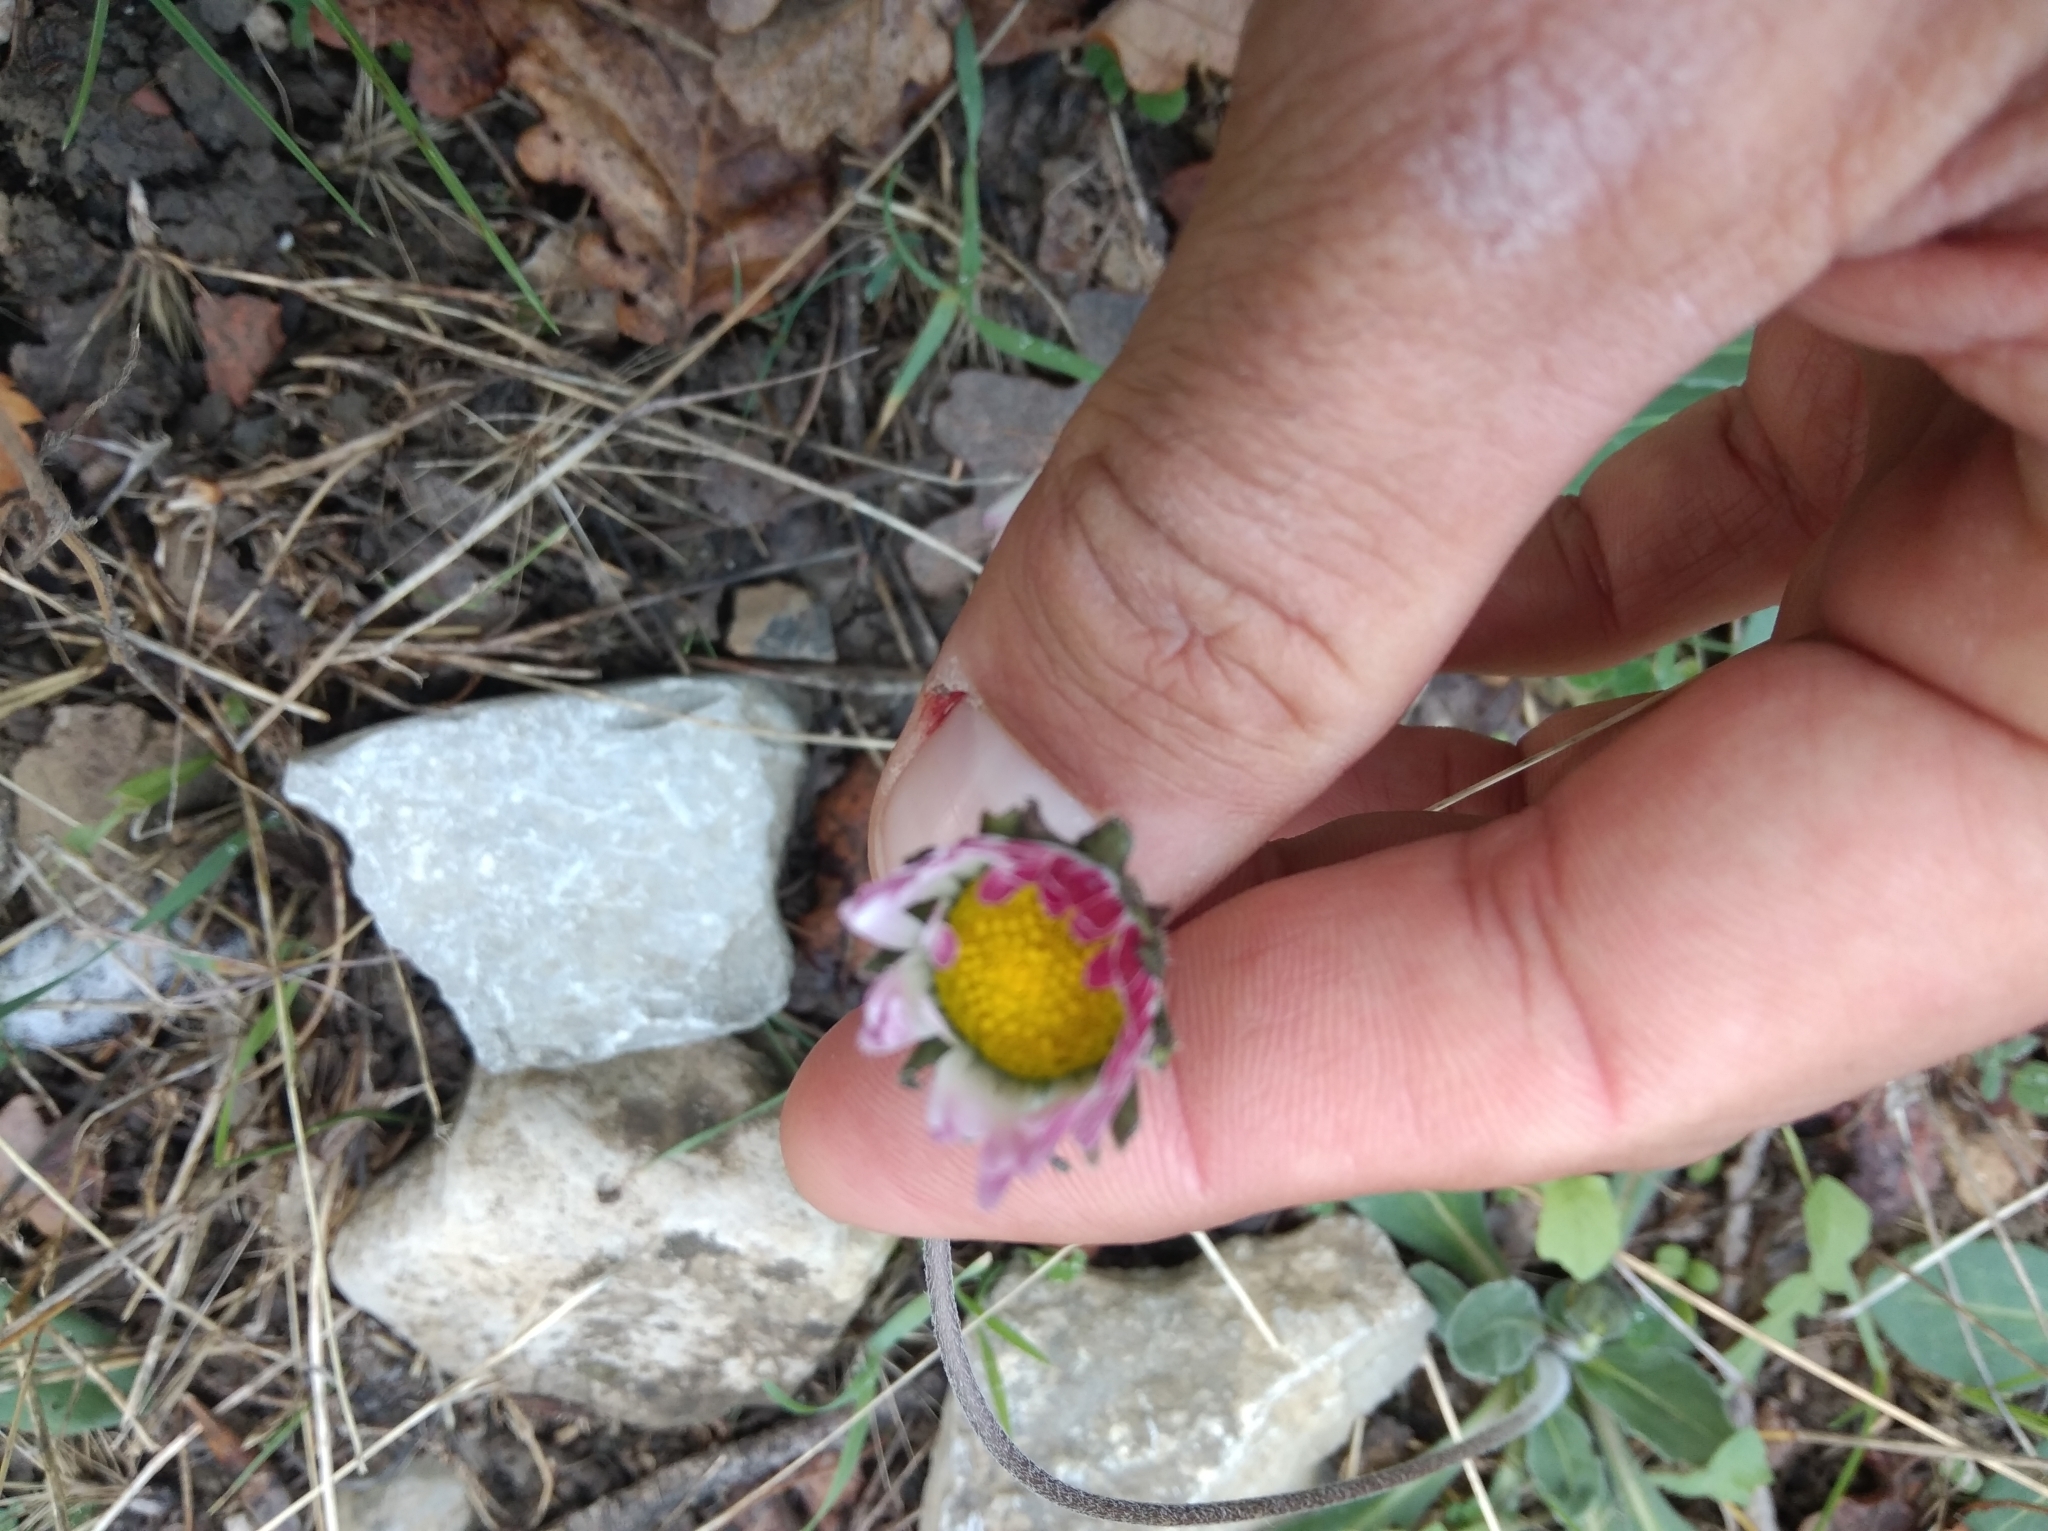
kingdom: Plantae
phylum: Tracheophyta
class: Magnoliopsida
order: Asterales
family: Asteraceae
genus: Bellis
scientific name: Bellis sylvestris
